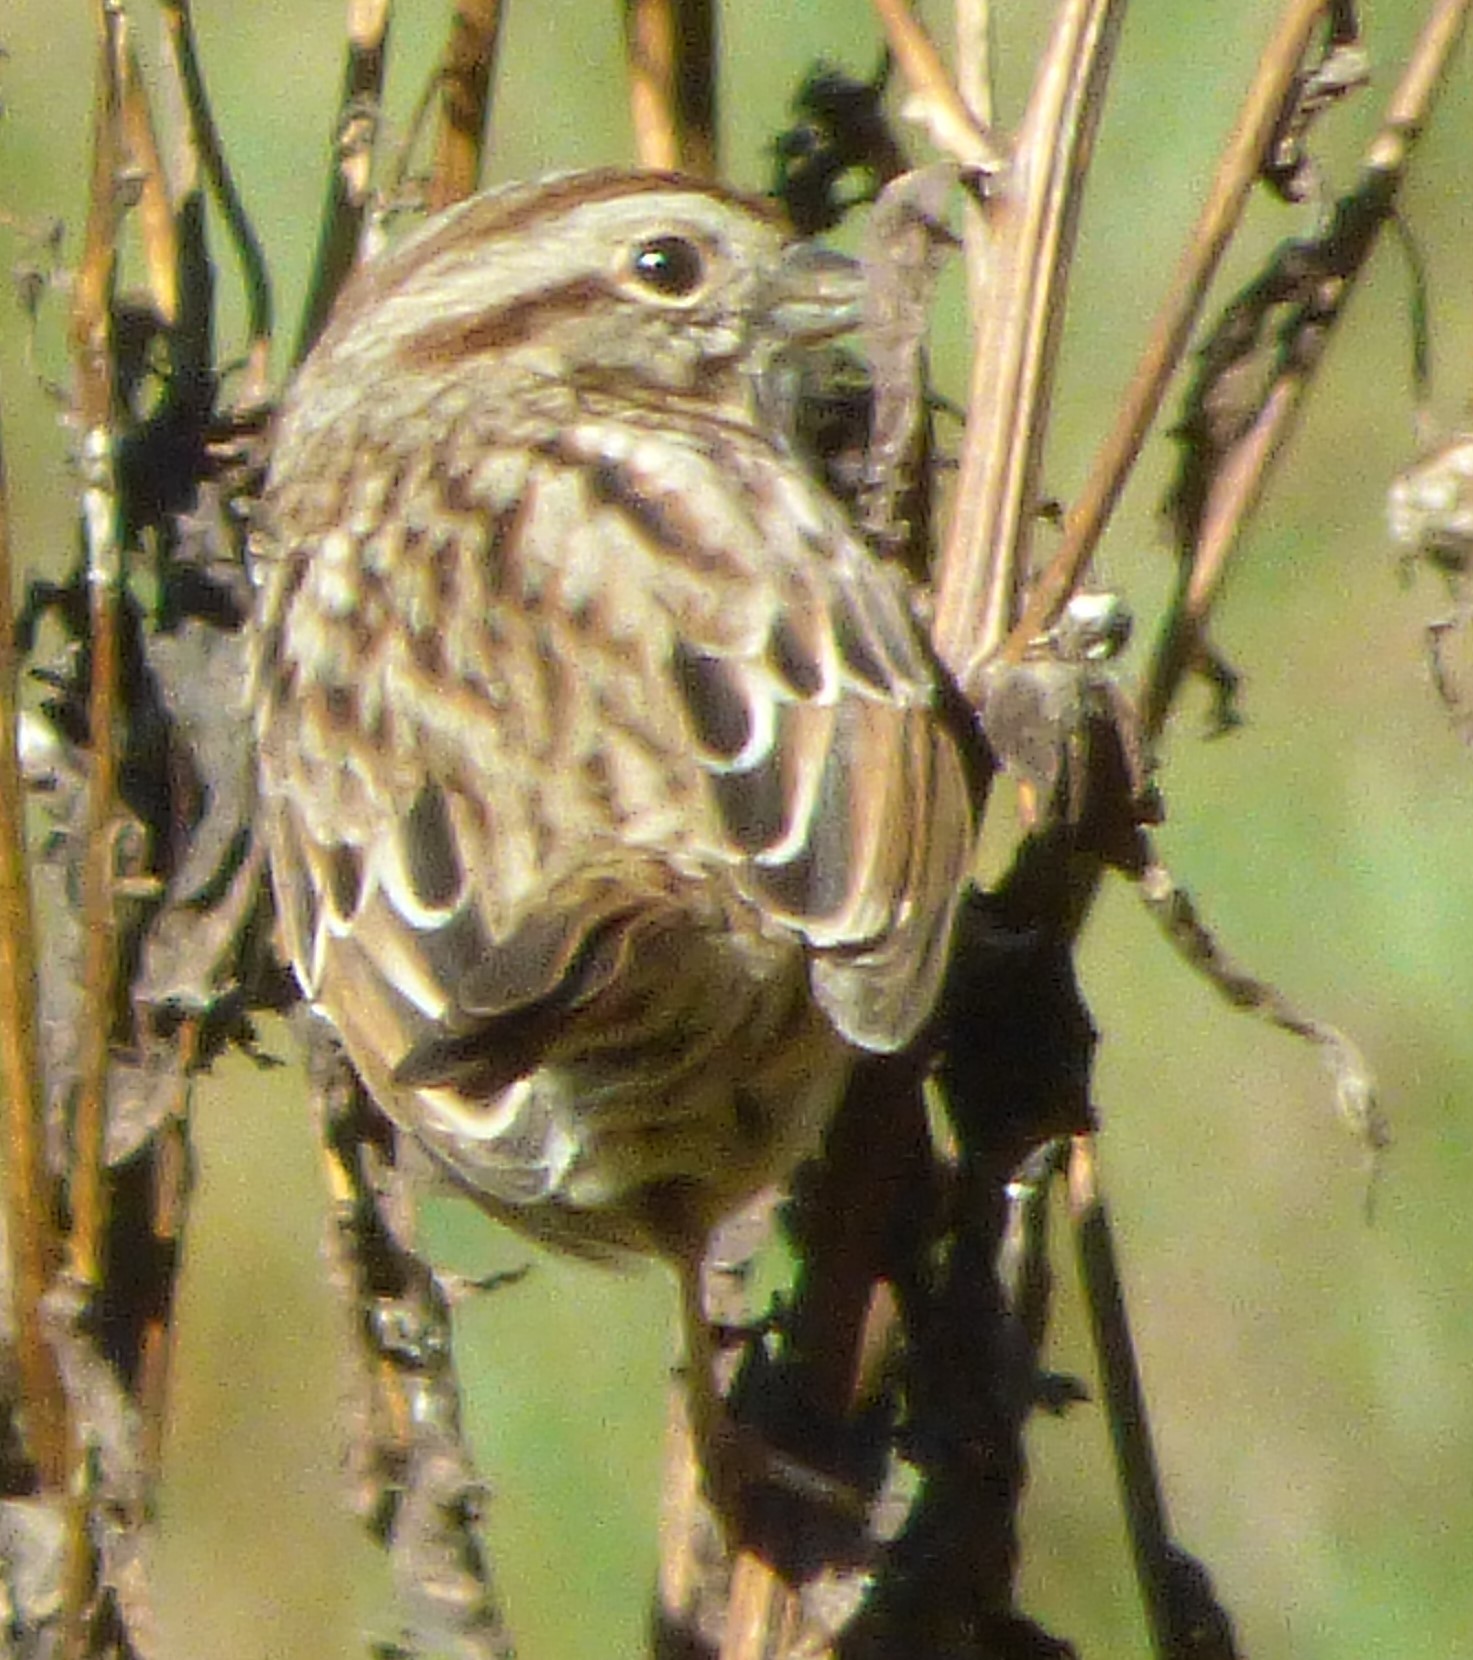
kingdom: Animalia
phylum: Chordata
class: Aves
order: Passeriformes
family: Passerellidae
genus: Melospiza
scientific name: Melospiza melodia
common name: Song sparrow
